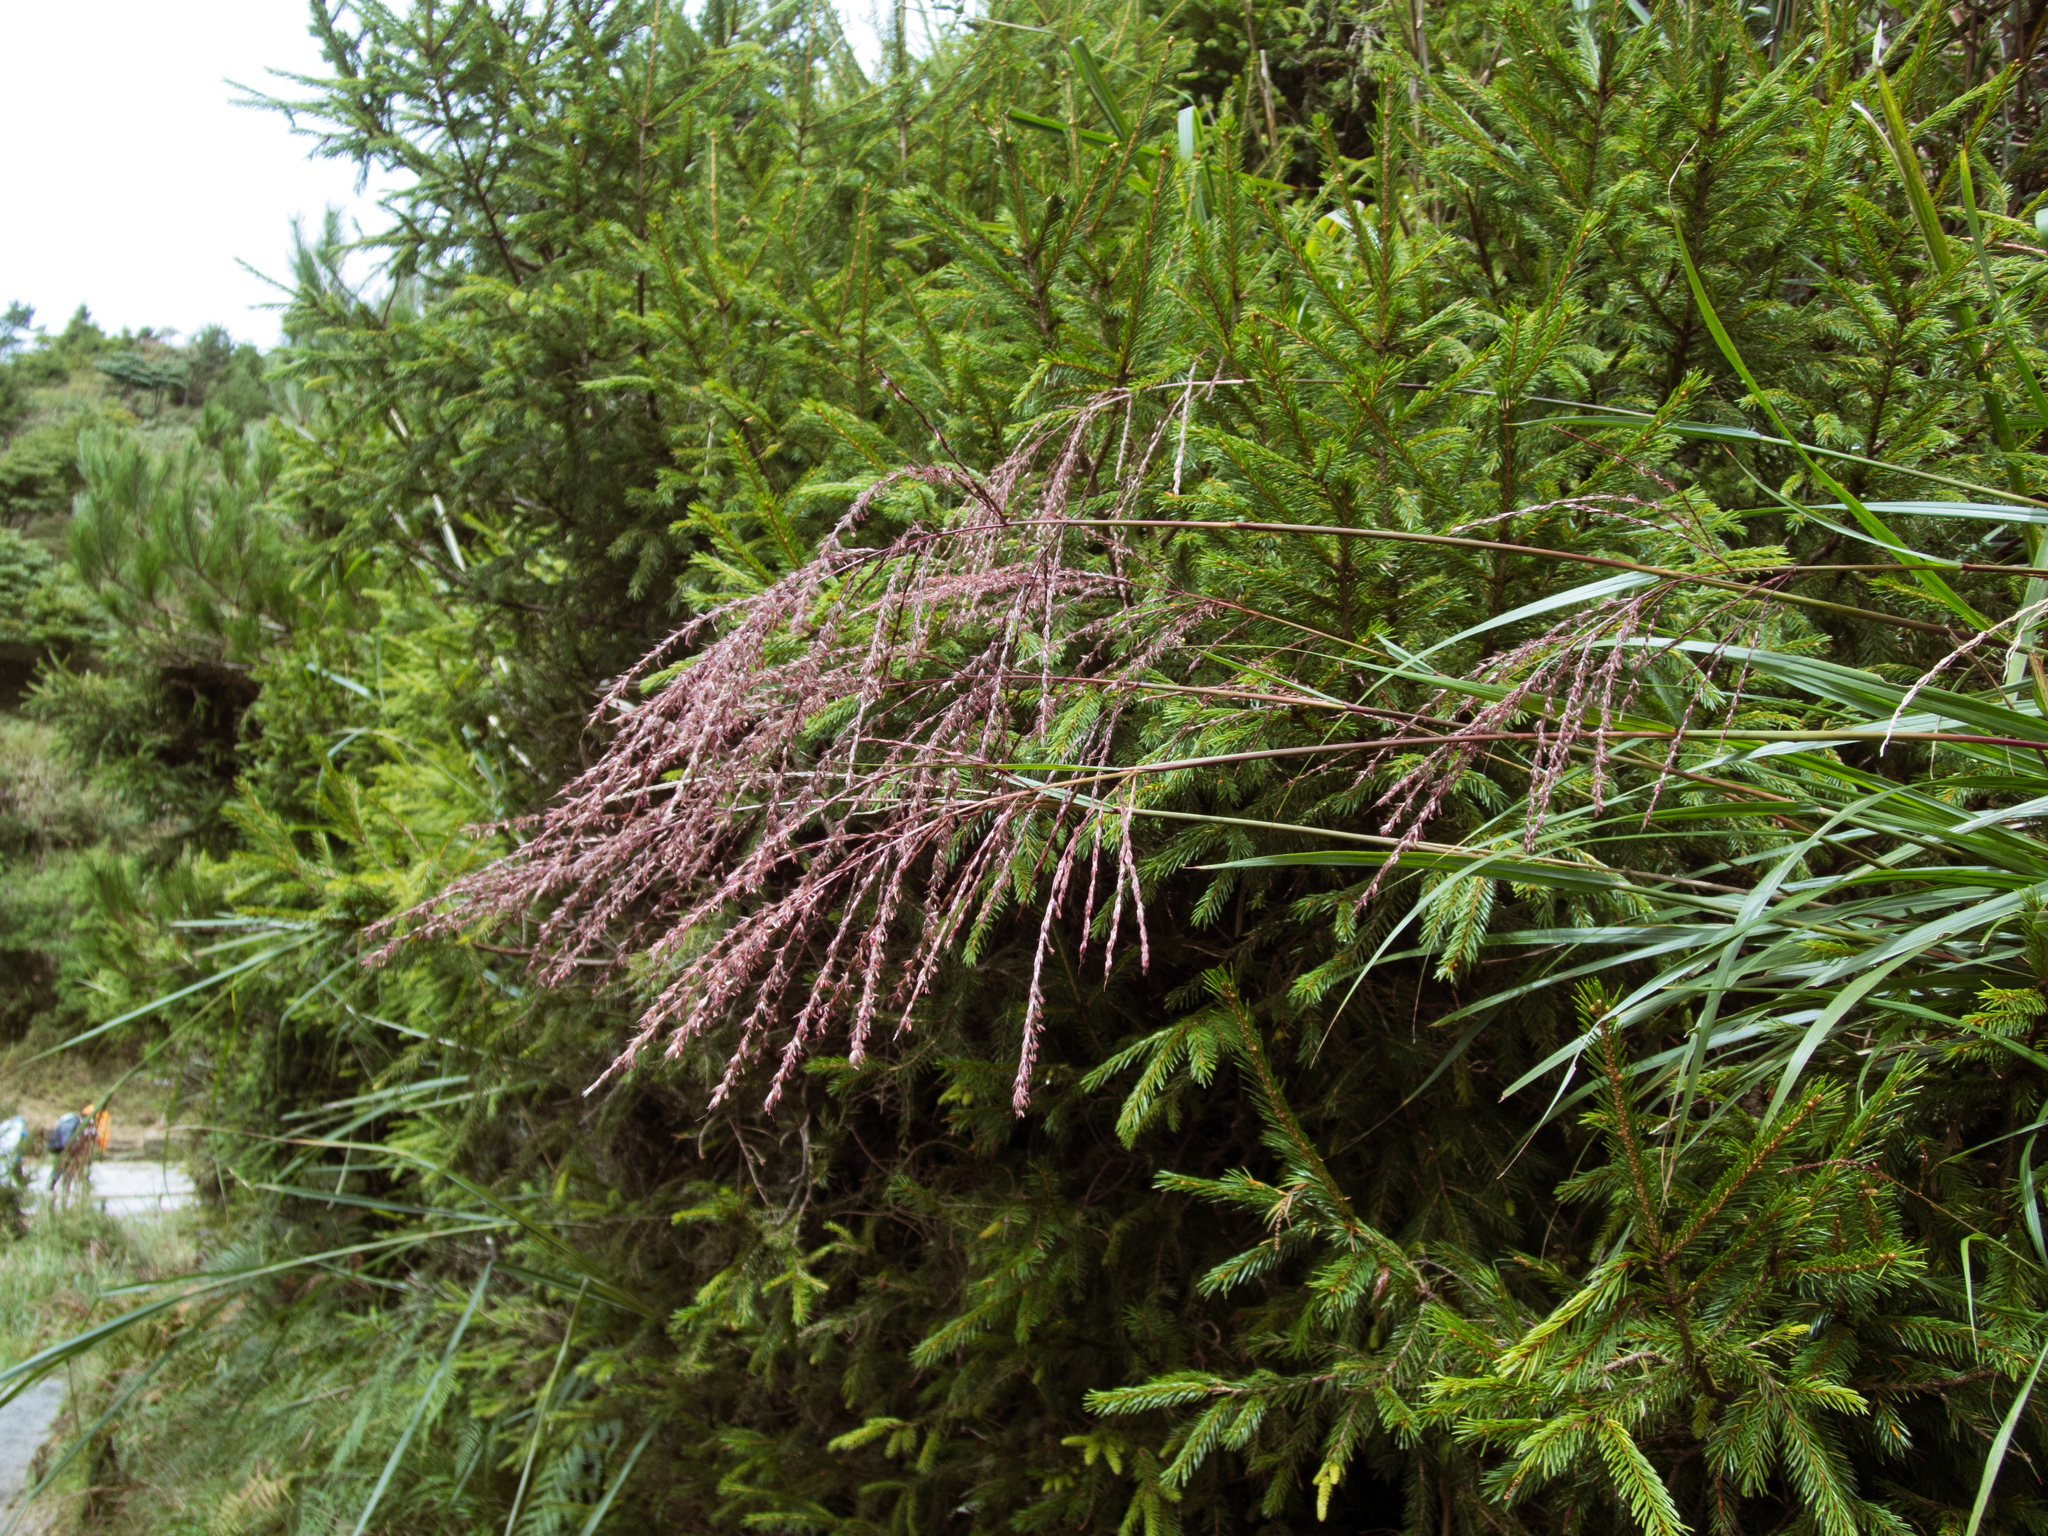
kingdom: Plantae
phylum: Tracheophyta
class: Liliopsida
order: Poales
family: Poaceae
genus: Miscanthus
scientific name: Miscanthus sinensis
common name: Chinese silvergrass
